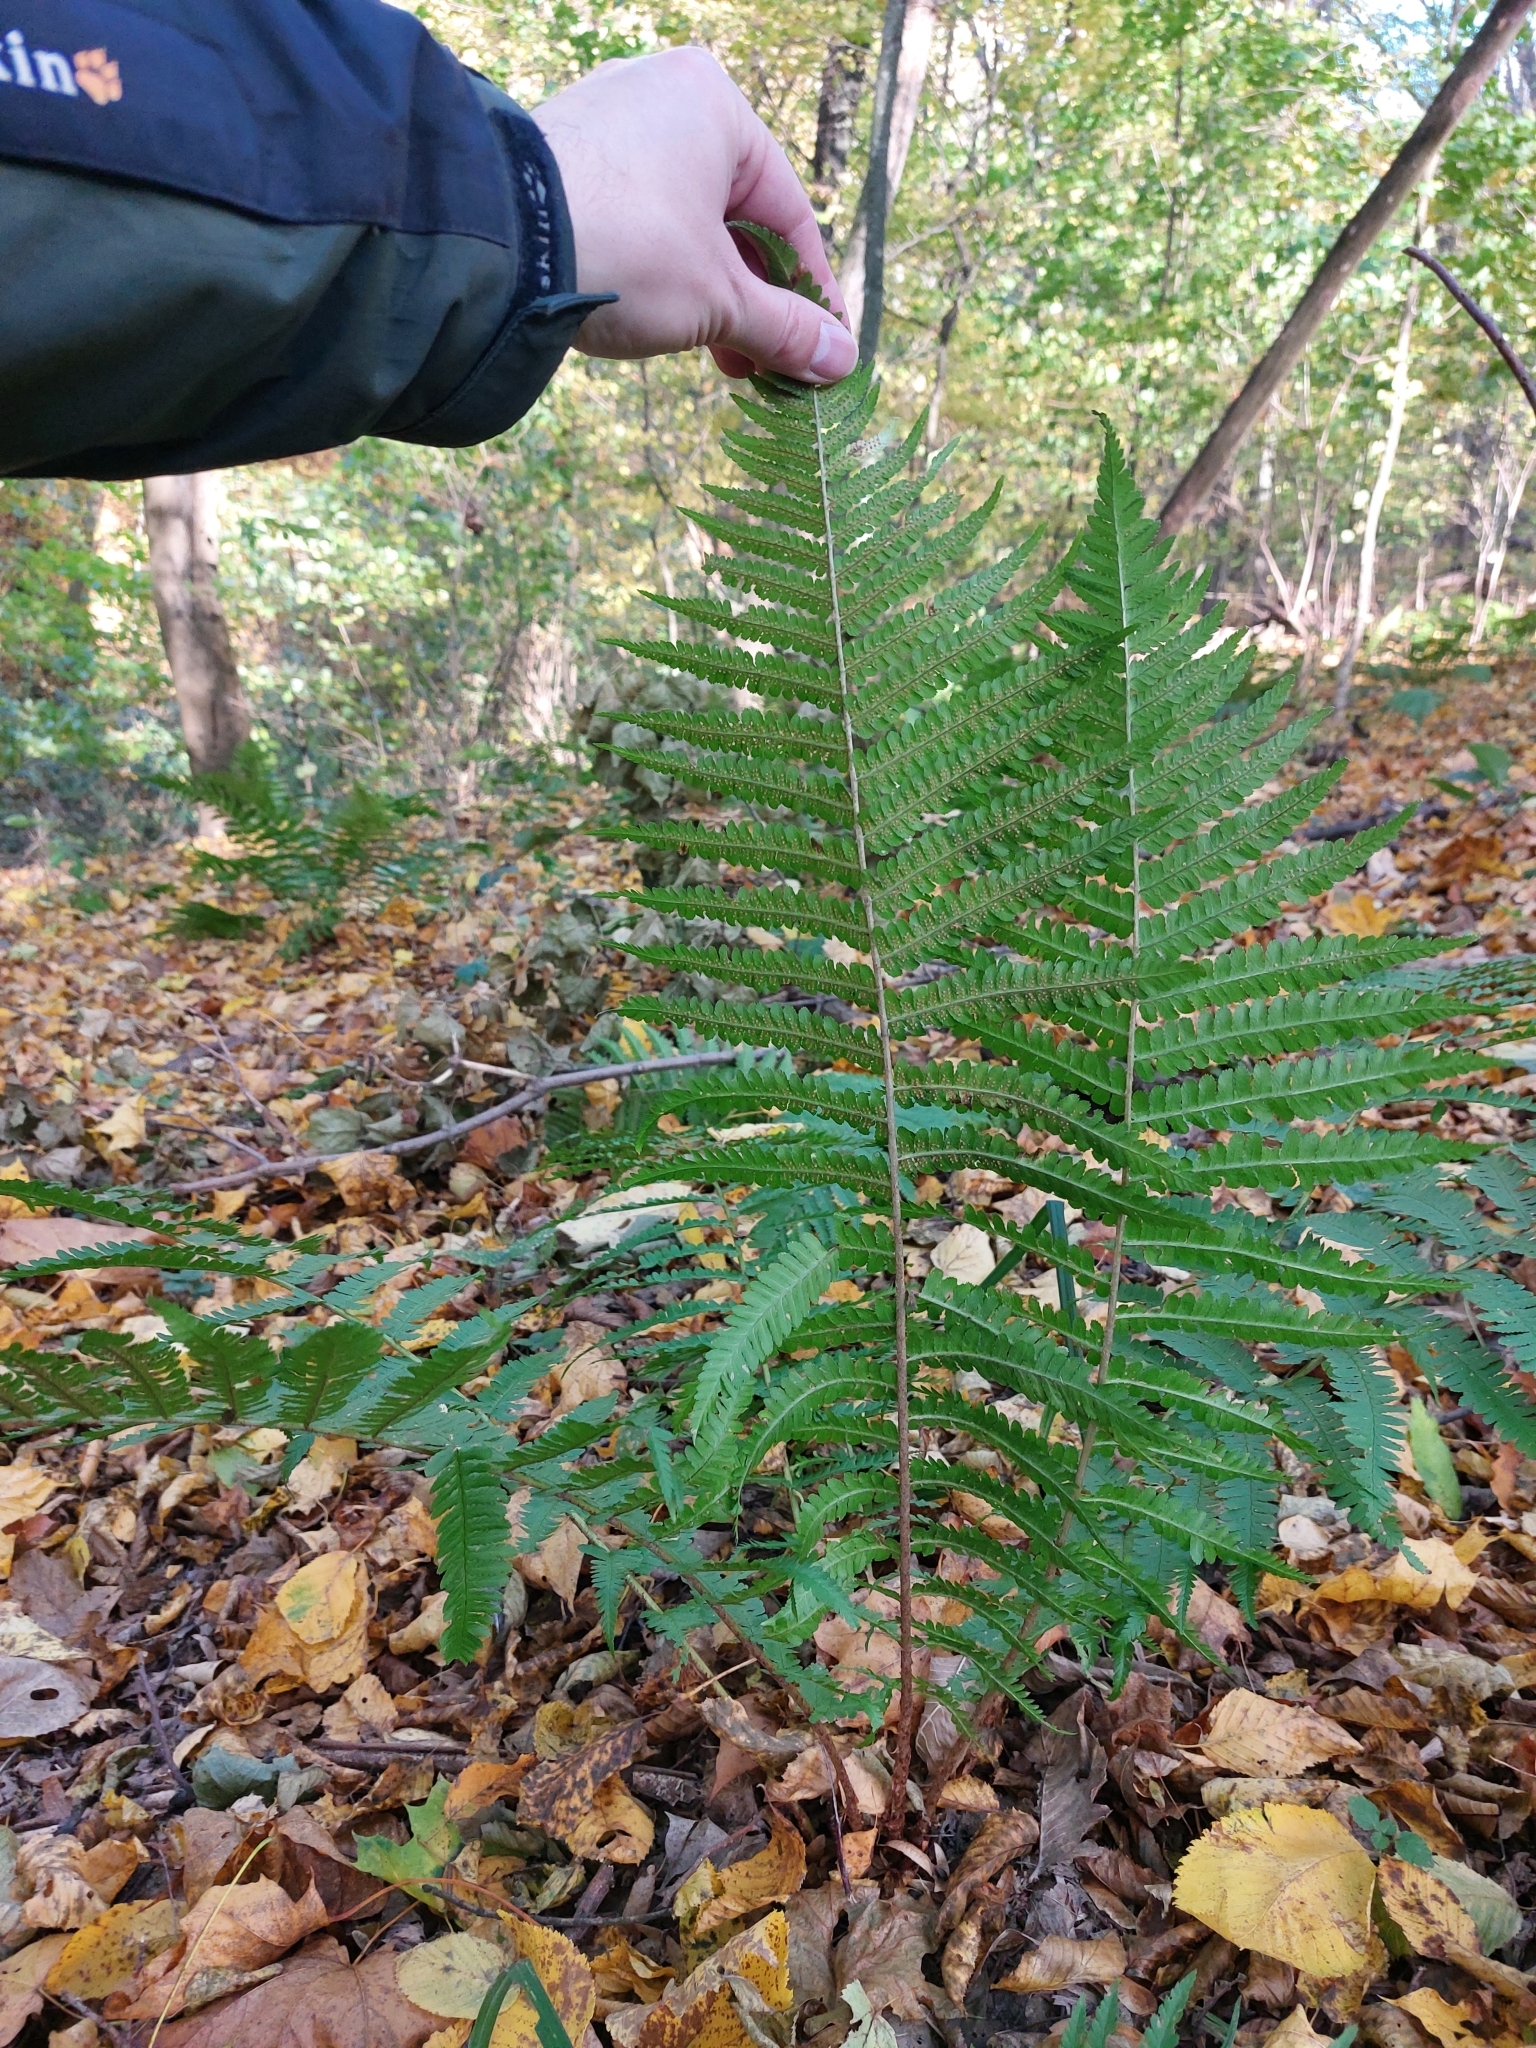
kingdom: Plantae
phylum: Tracheophyta
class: Polypodiopsida
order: Polypodiales
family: Dryopteridaceae
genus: Dryopteris
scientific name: Dryopteris filix-mas
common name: Male fern
